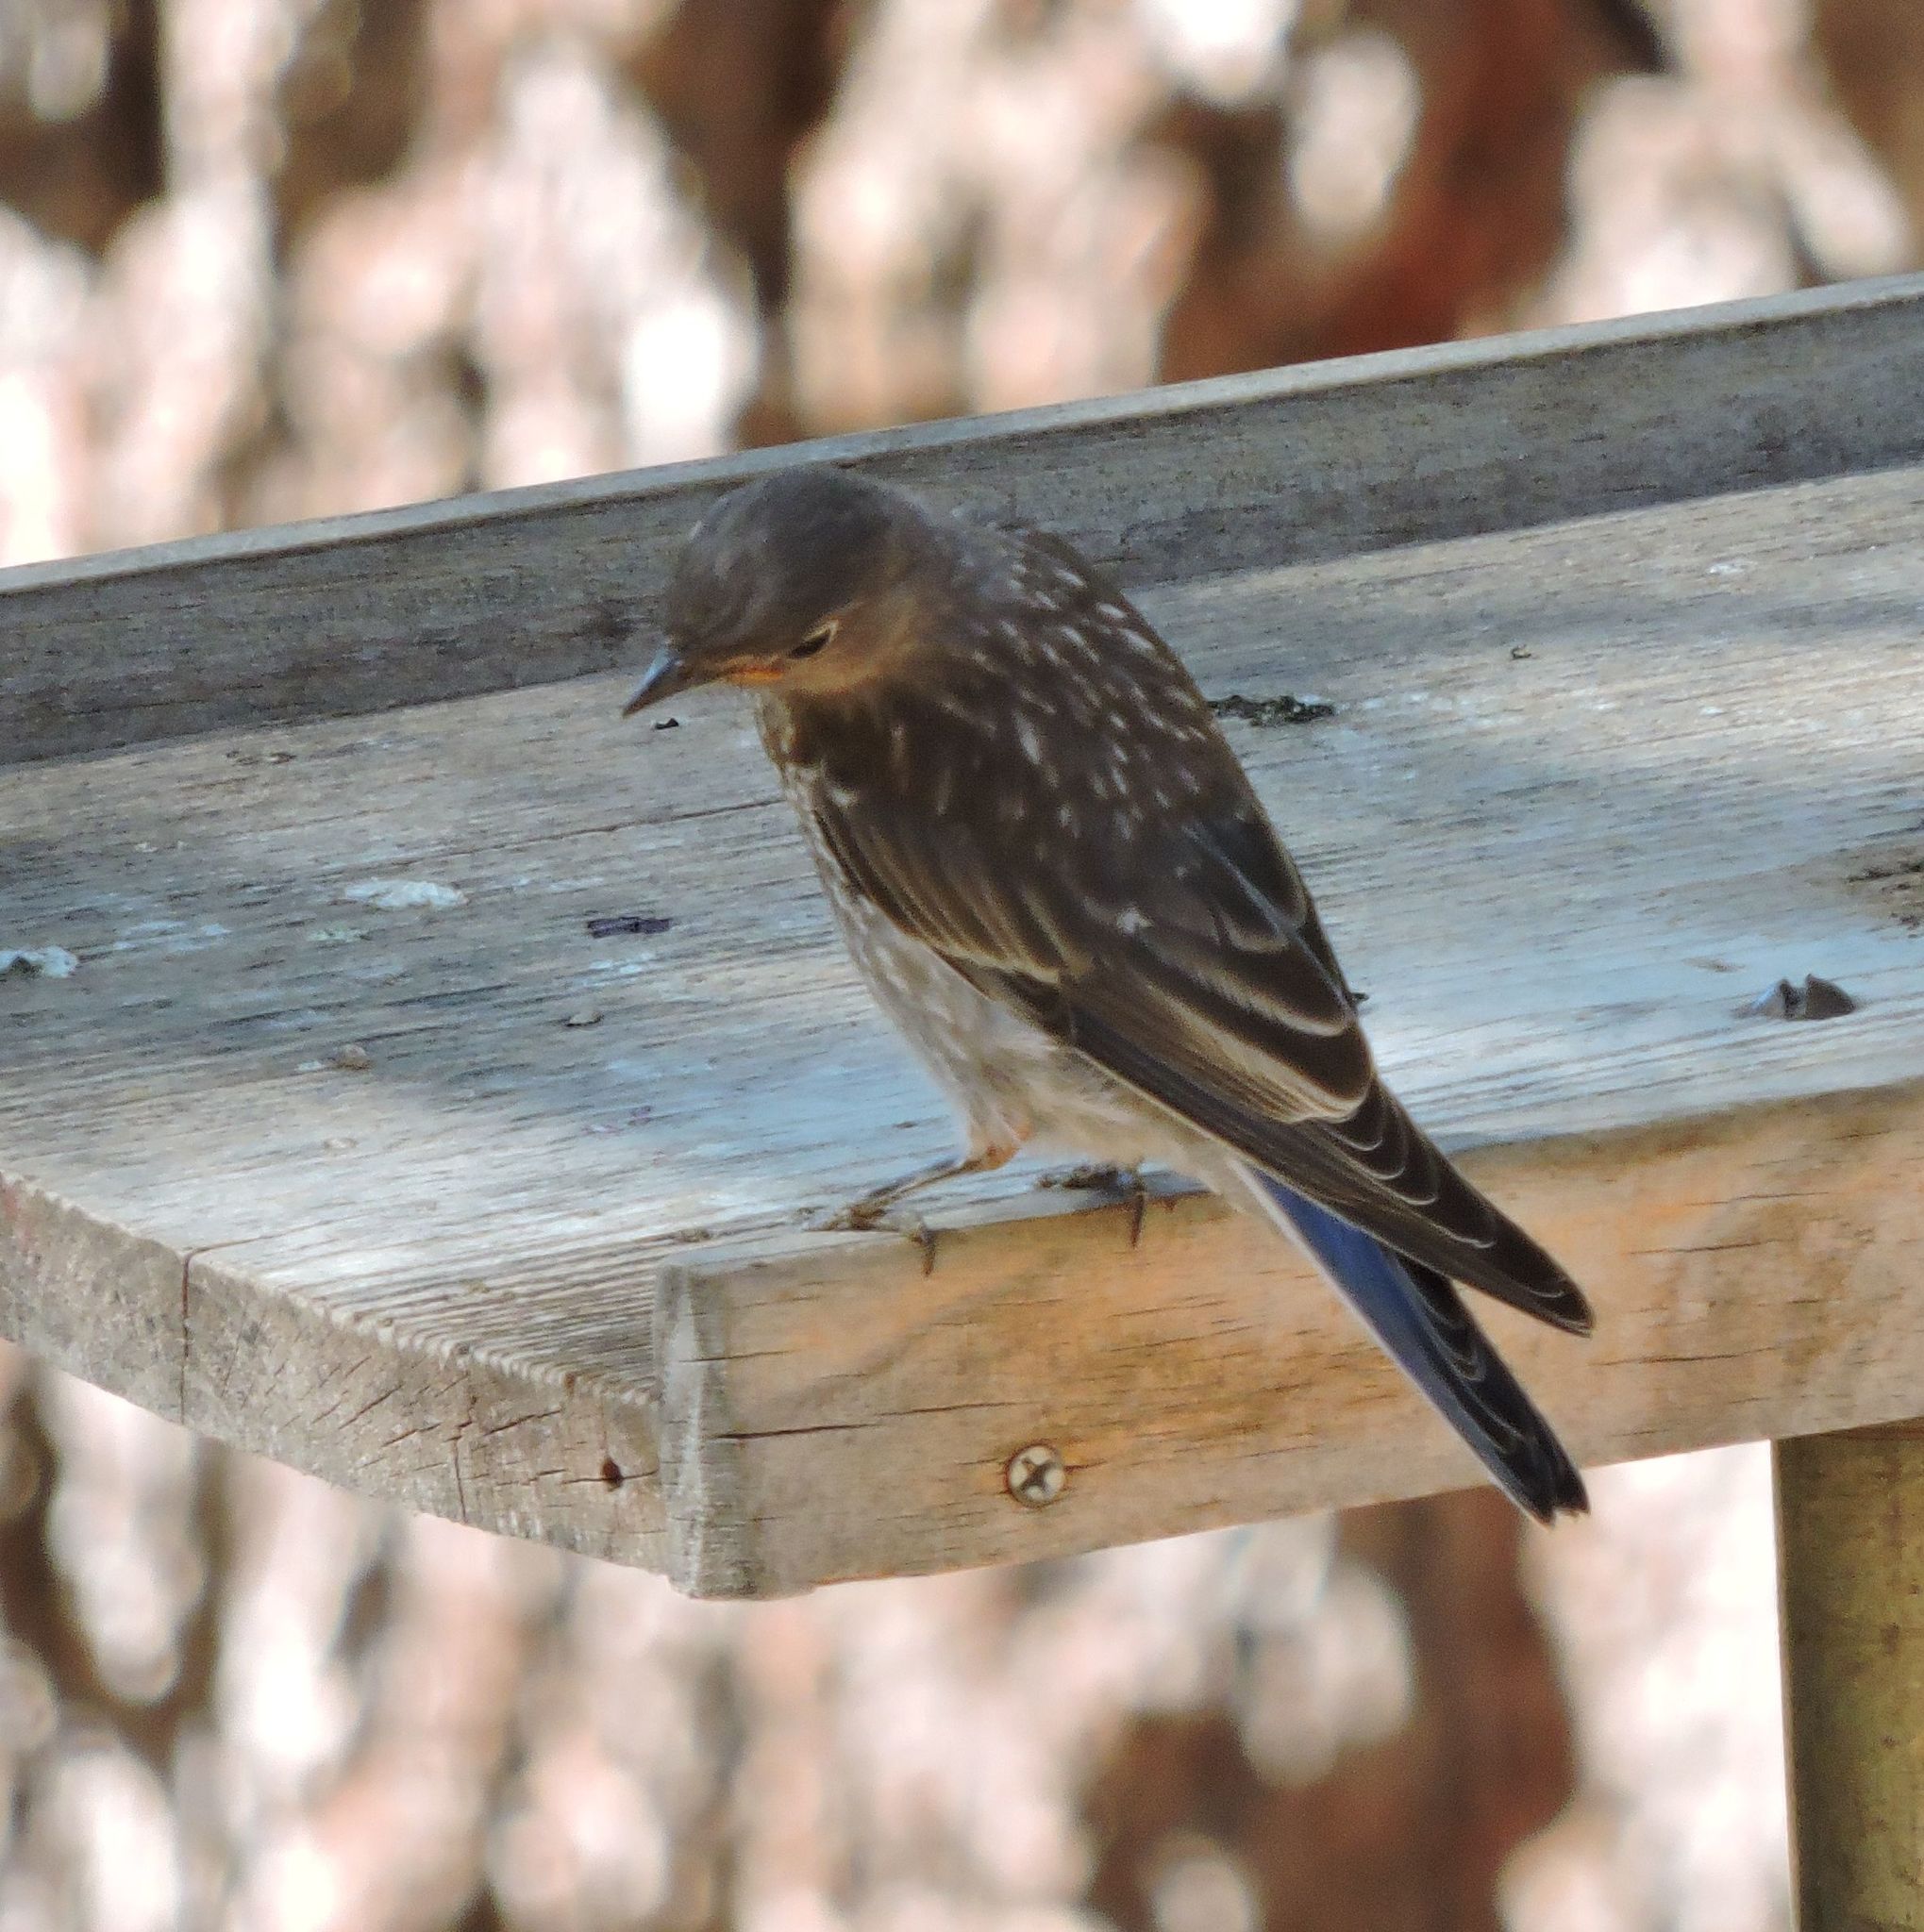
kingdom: Animalia
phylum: Chordata
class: Aves
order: Passeriformes
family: Turdidae
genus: Sialia
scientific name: Sialia mexicana
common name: Western bluebird
